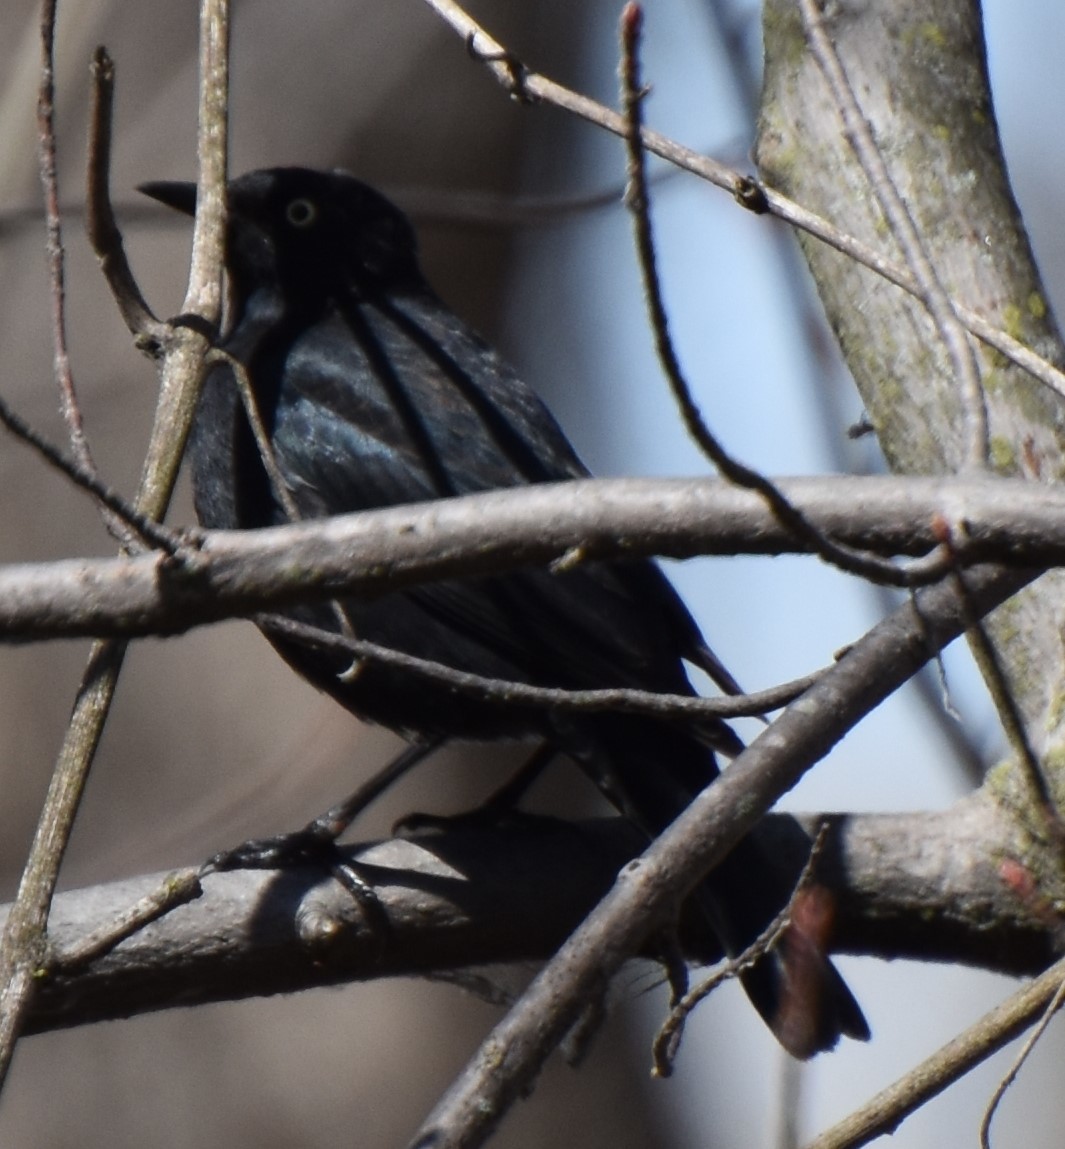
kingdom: Animalia
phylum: Chordata
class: Aves
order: Passeriformes
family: Icteridae
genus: Euphagus
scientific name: Euphagus carolinus
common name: Rusty blackbird
